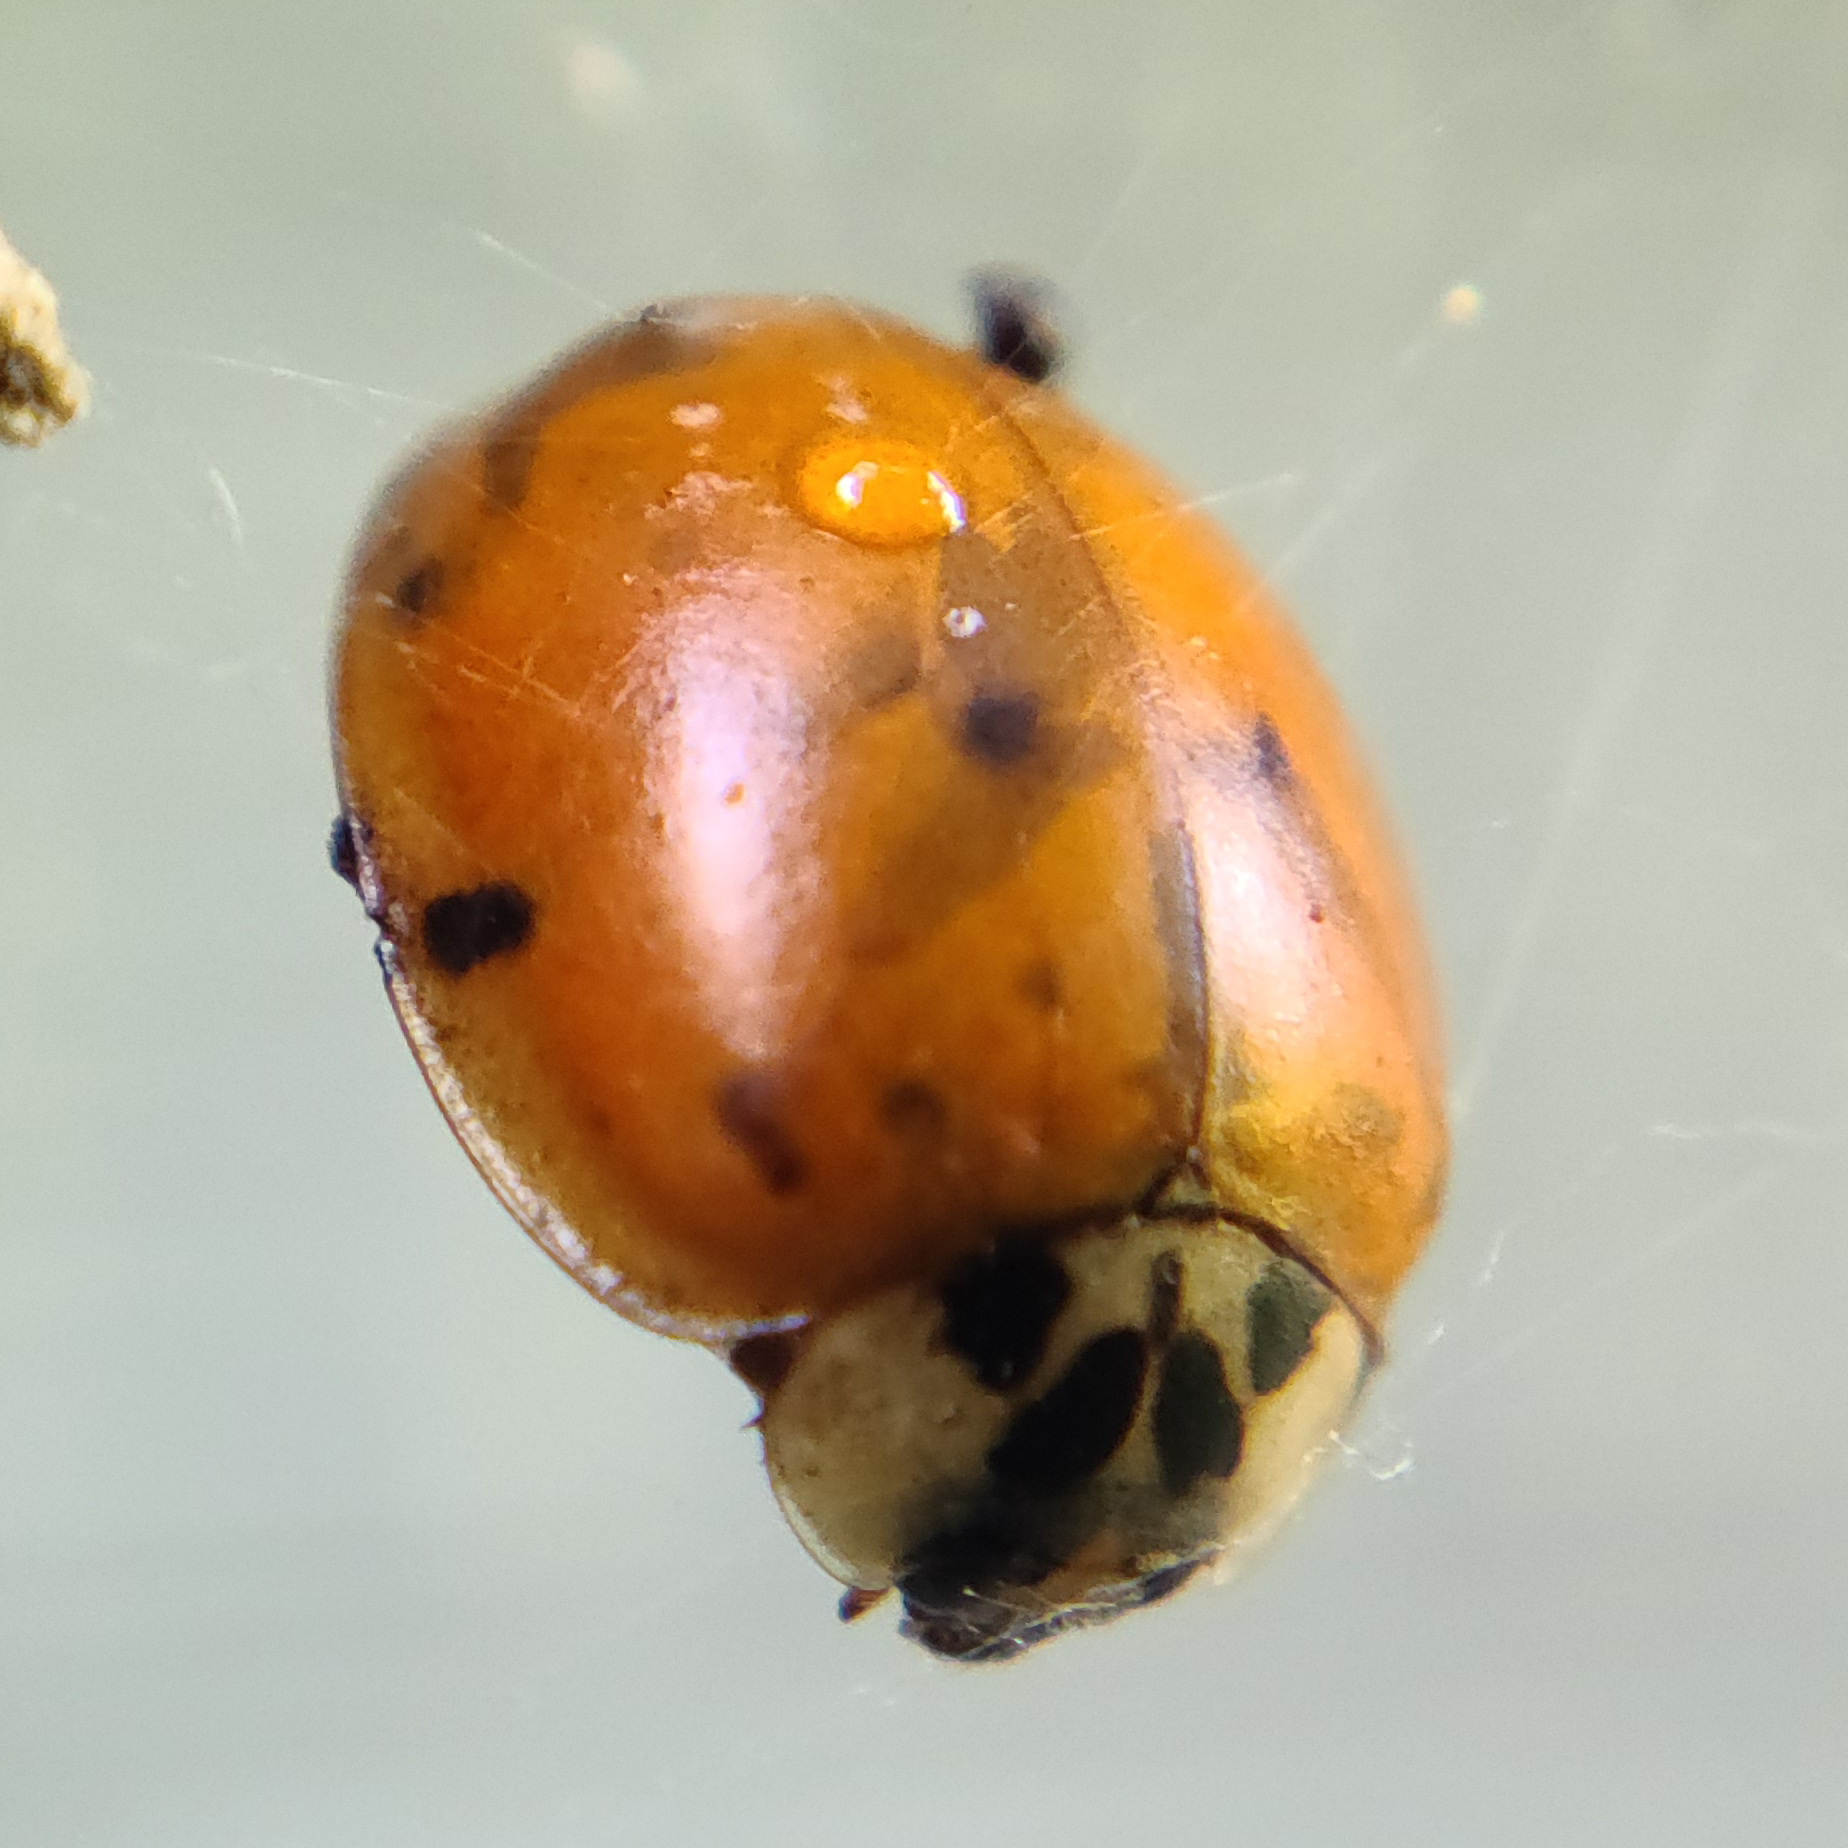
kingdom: Animalia
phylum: Arthropoda
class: Insecta
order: Coleoptera
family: Coccinellidae
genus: Harmonia
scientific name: Harmonia axyridis
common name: Harlequin ladybird
